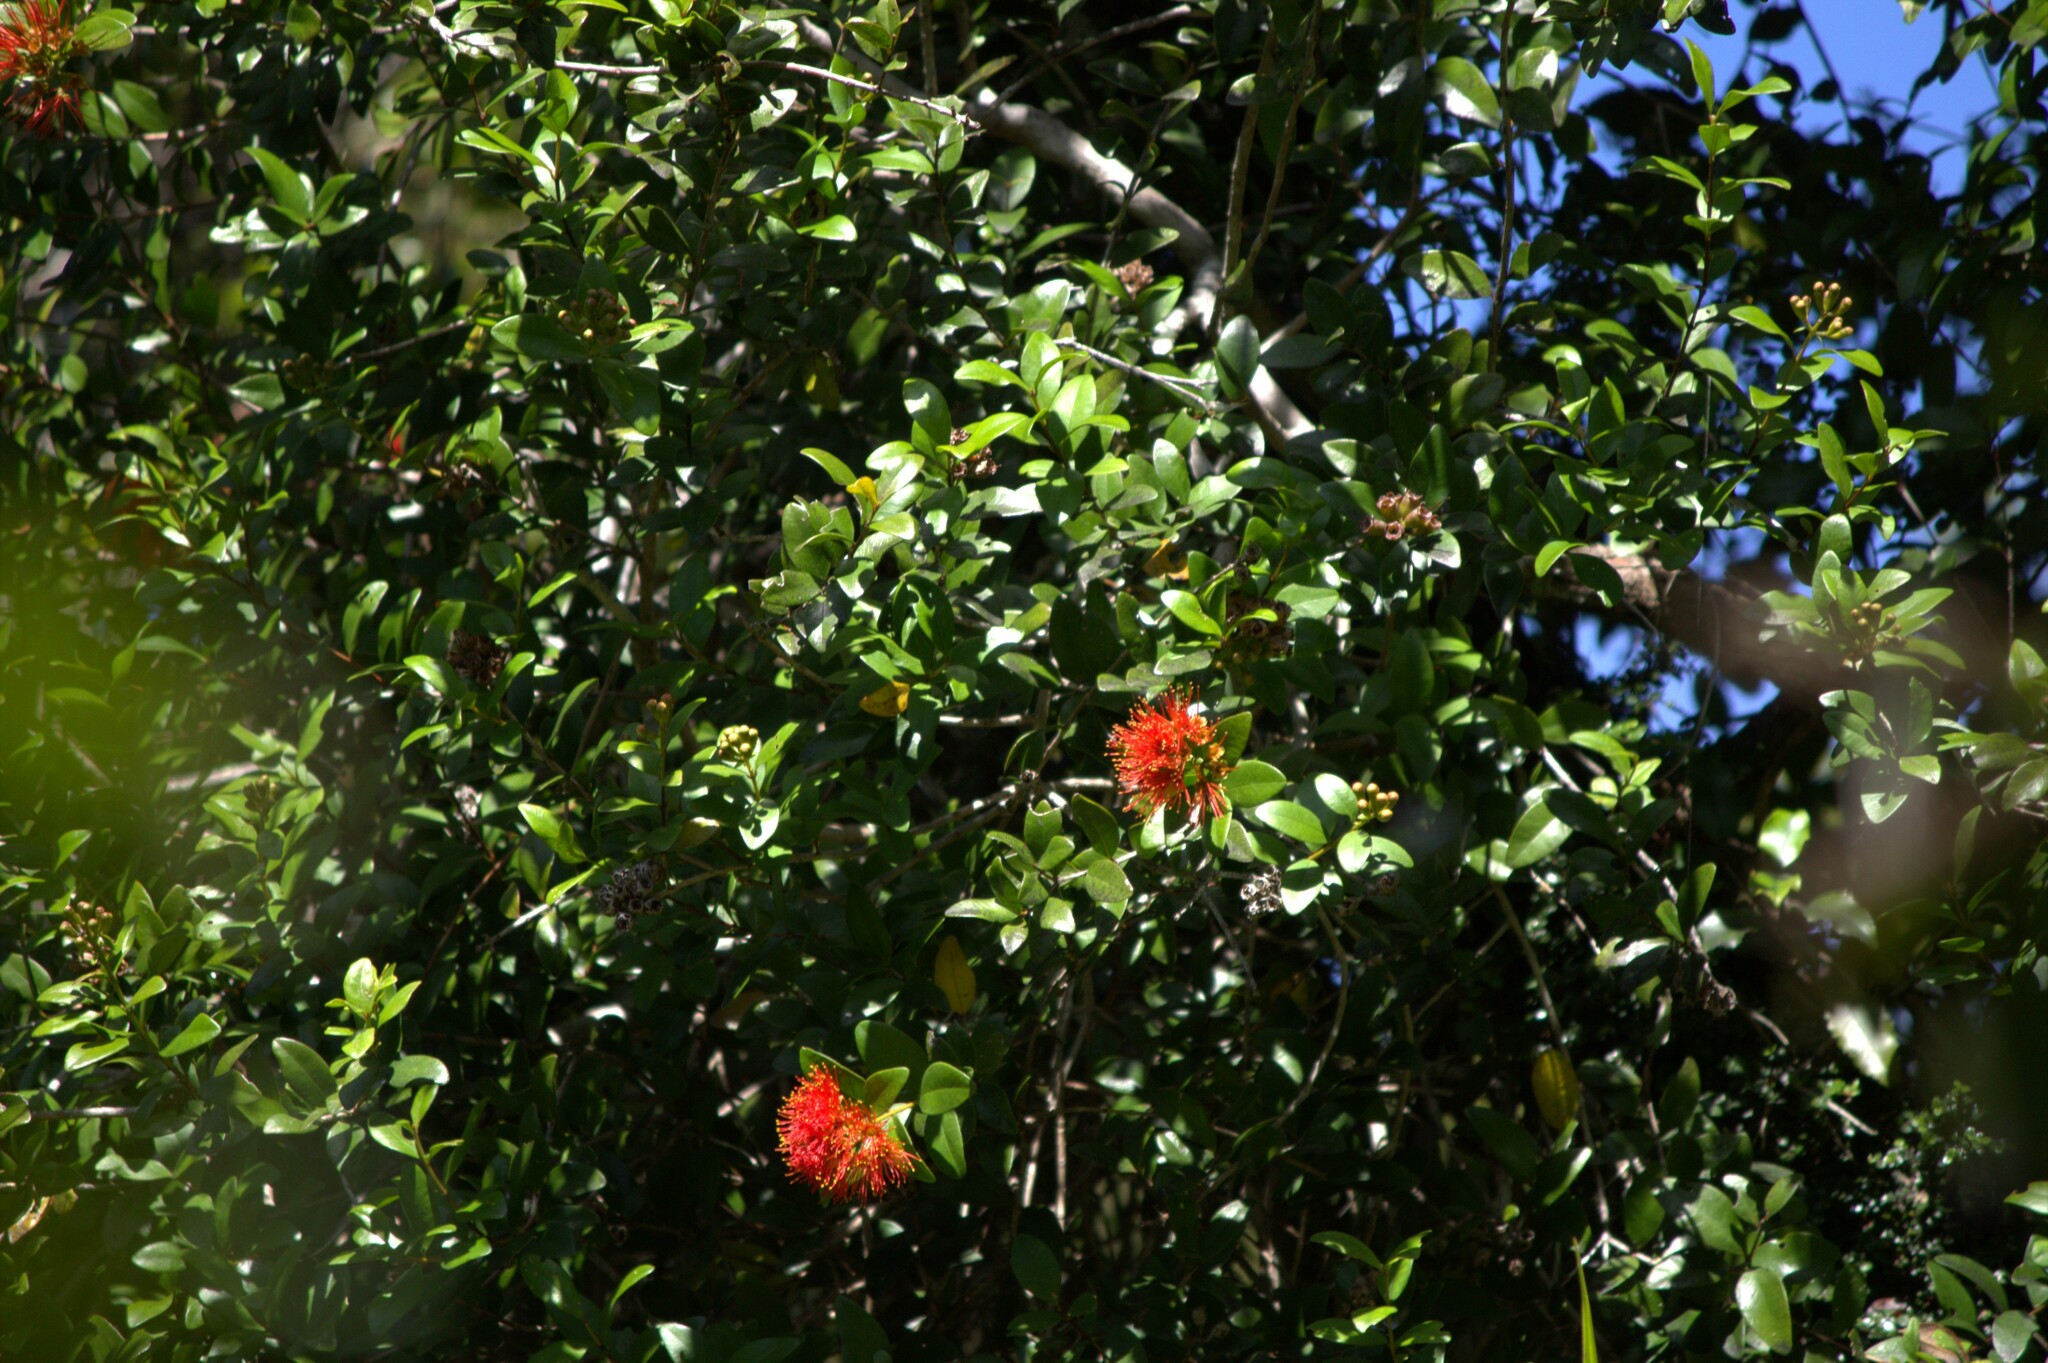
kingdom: Plantae
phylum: Tracheophyta
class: Magnoliopsida
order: Myrtales
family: Myrtaceae
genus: Metrosideros
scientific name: Metrosideros fulgens
